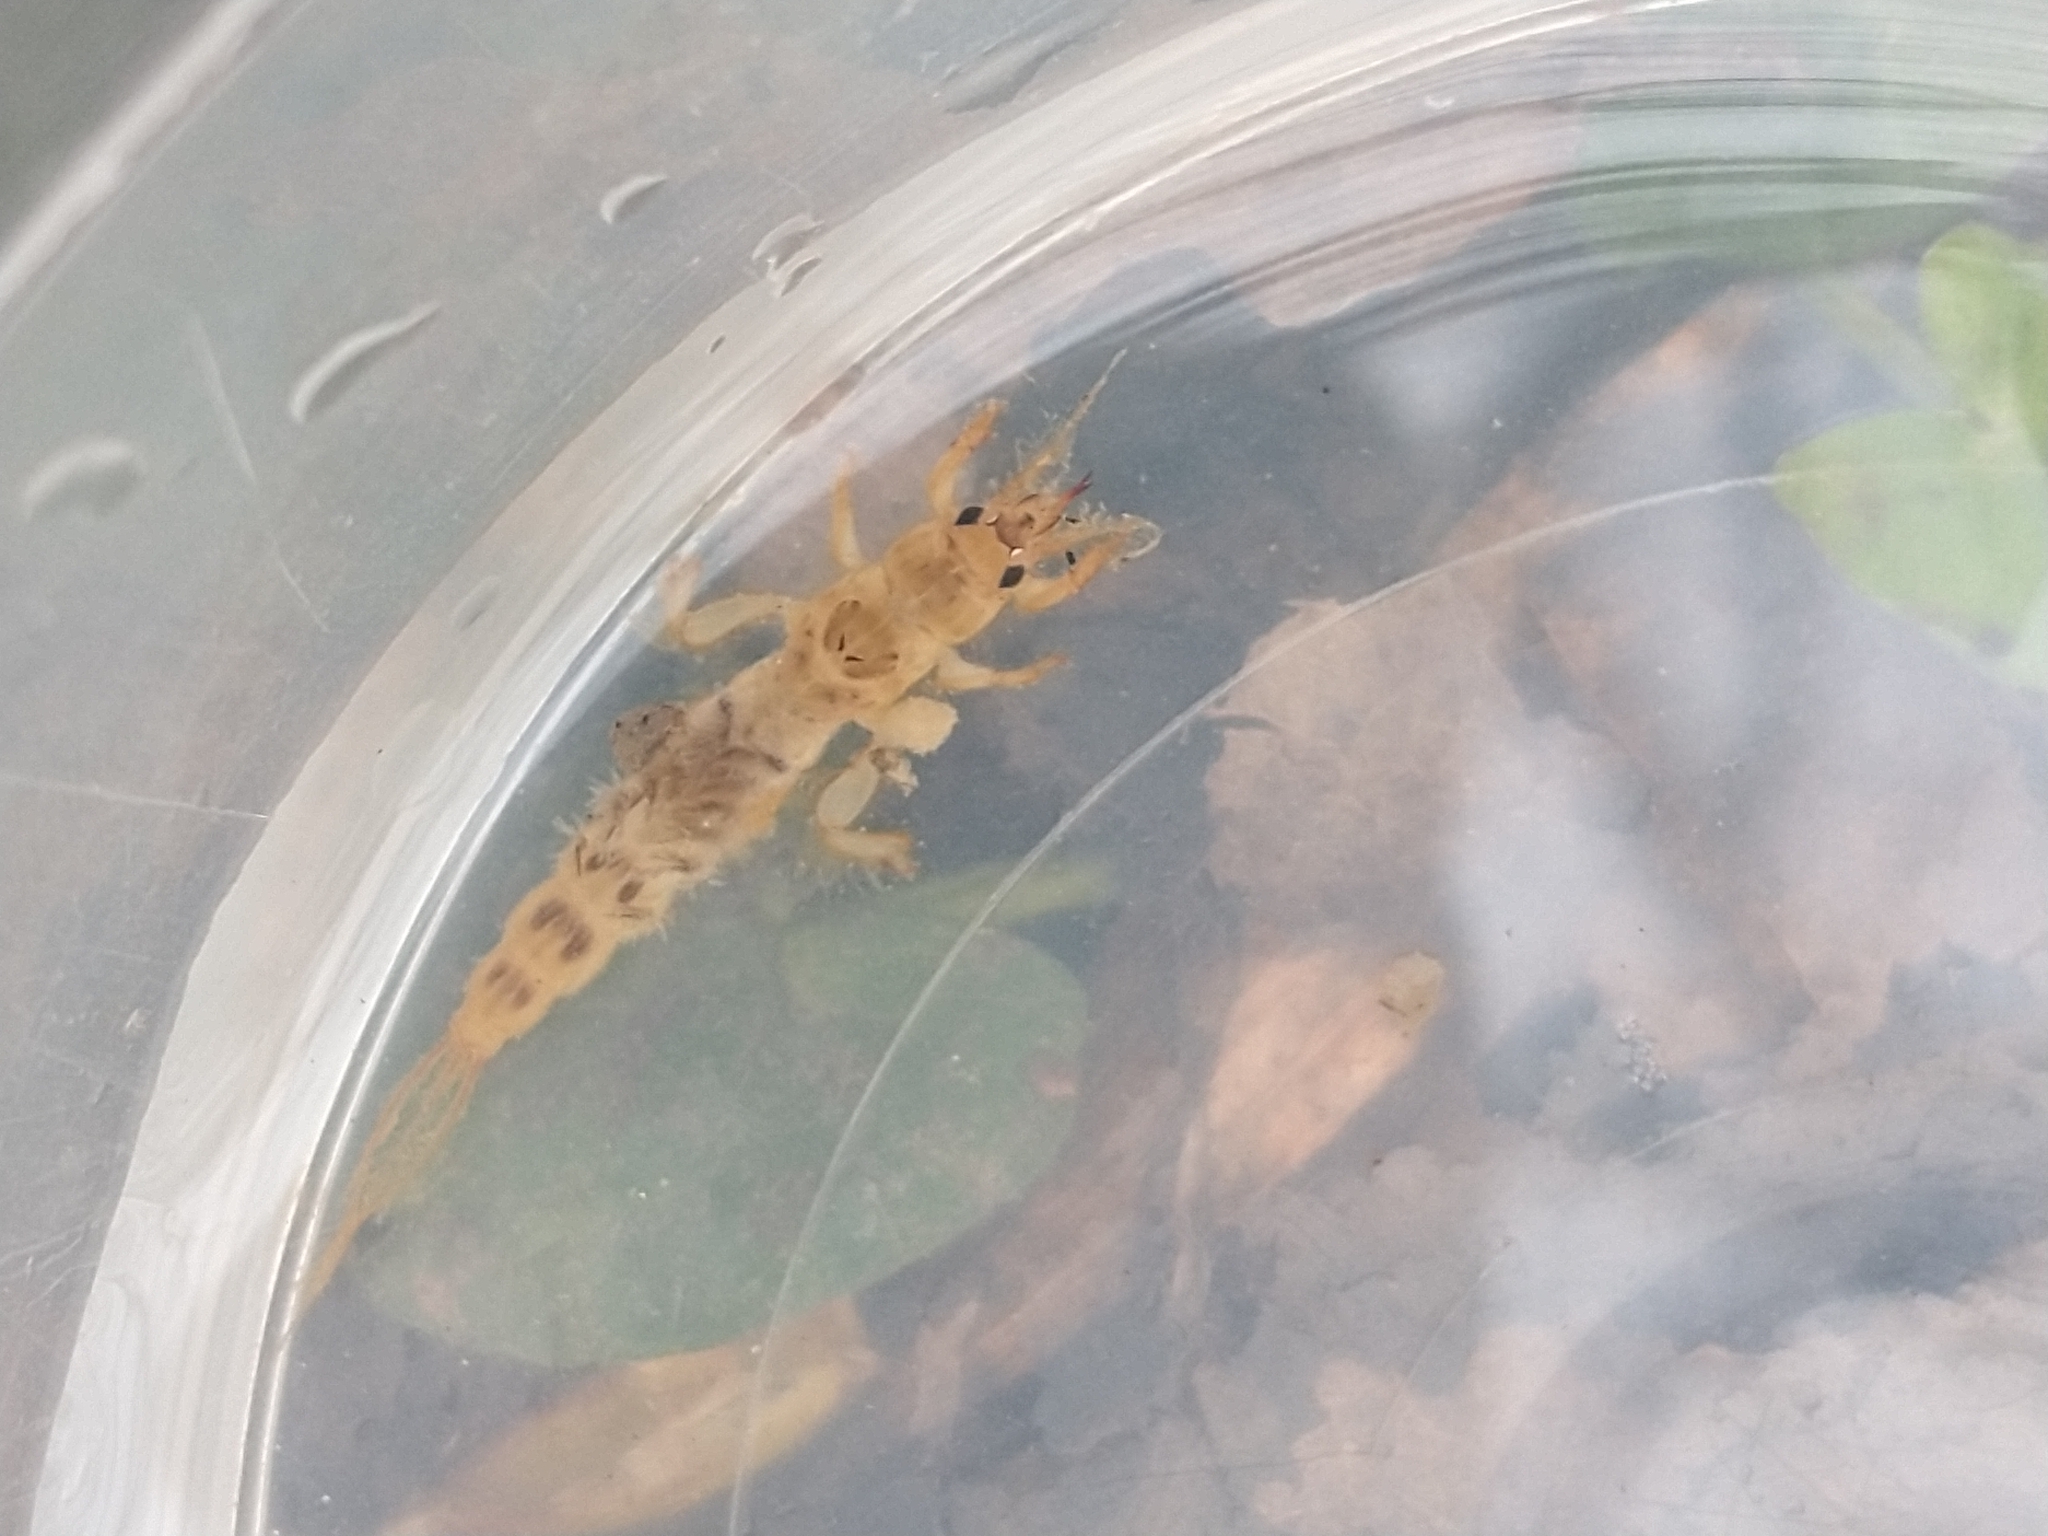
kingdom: Animalia
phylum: Arthropoda
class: Insecta
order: Ephemeroptera
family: Ephemeridae
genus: Ephemera
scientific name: Ephemera danica
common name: Green dun
